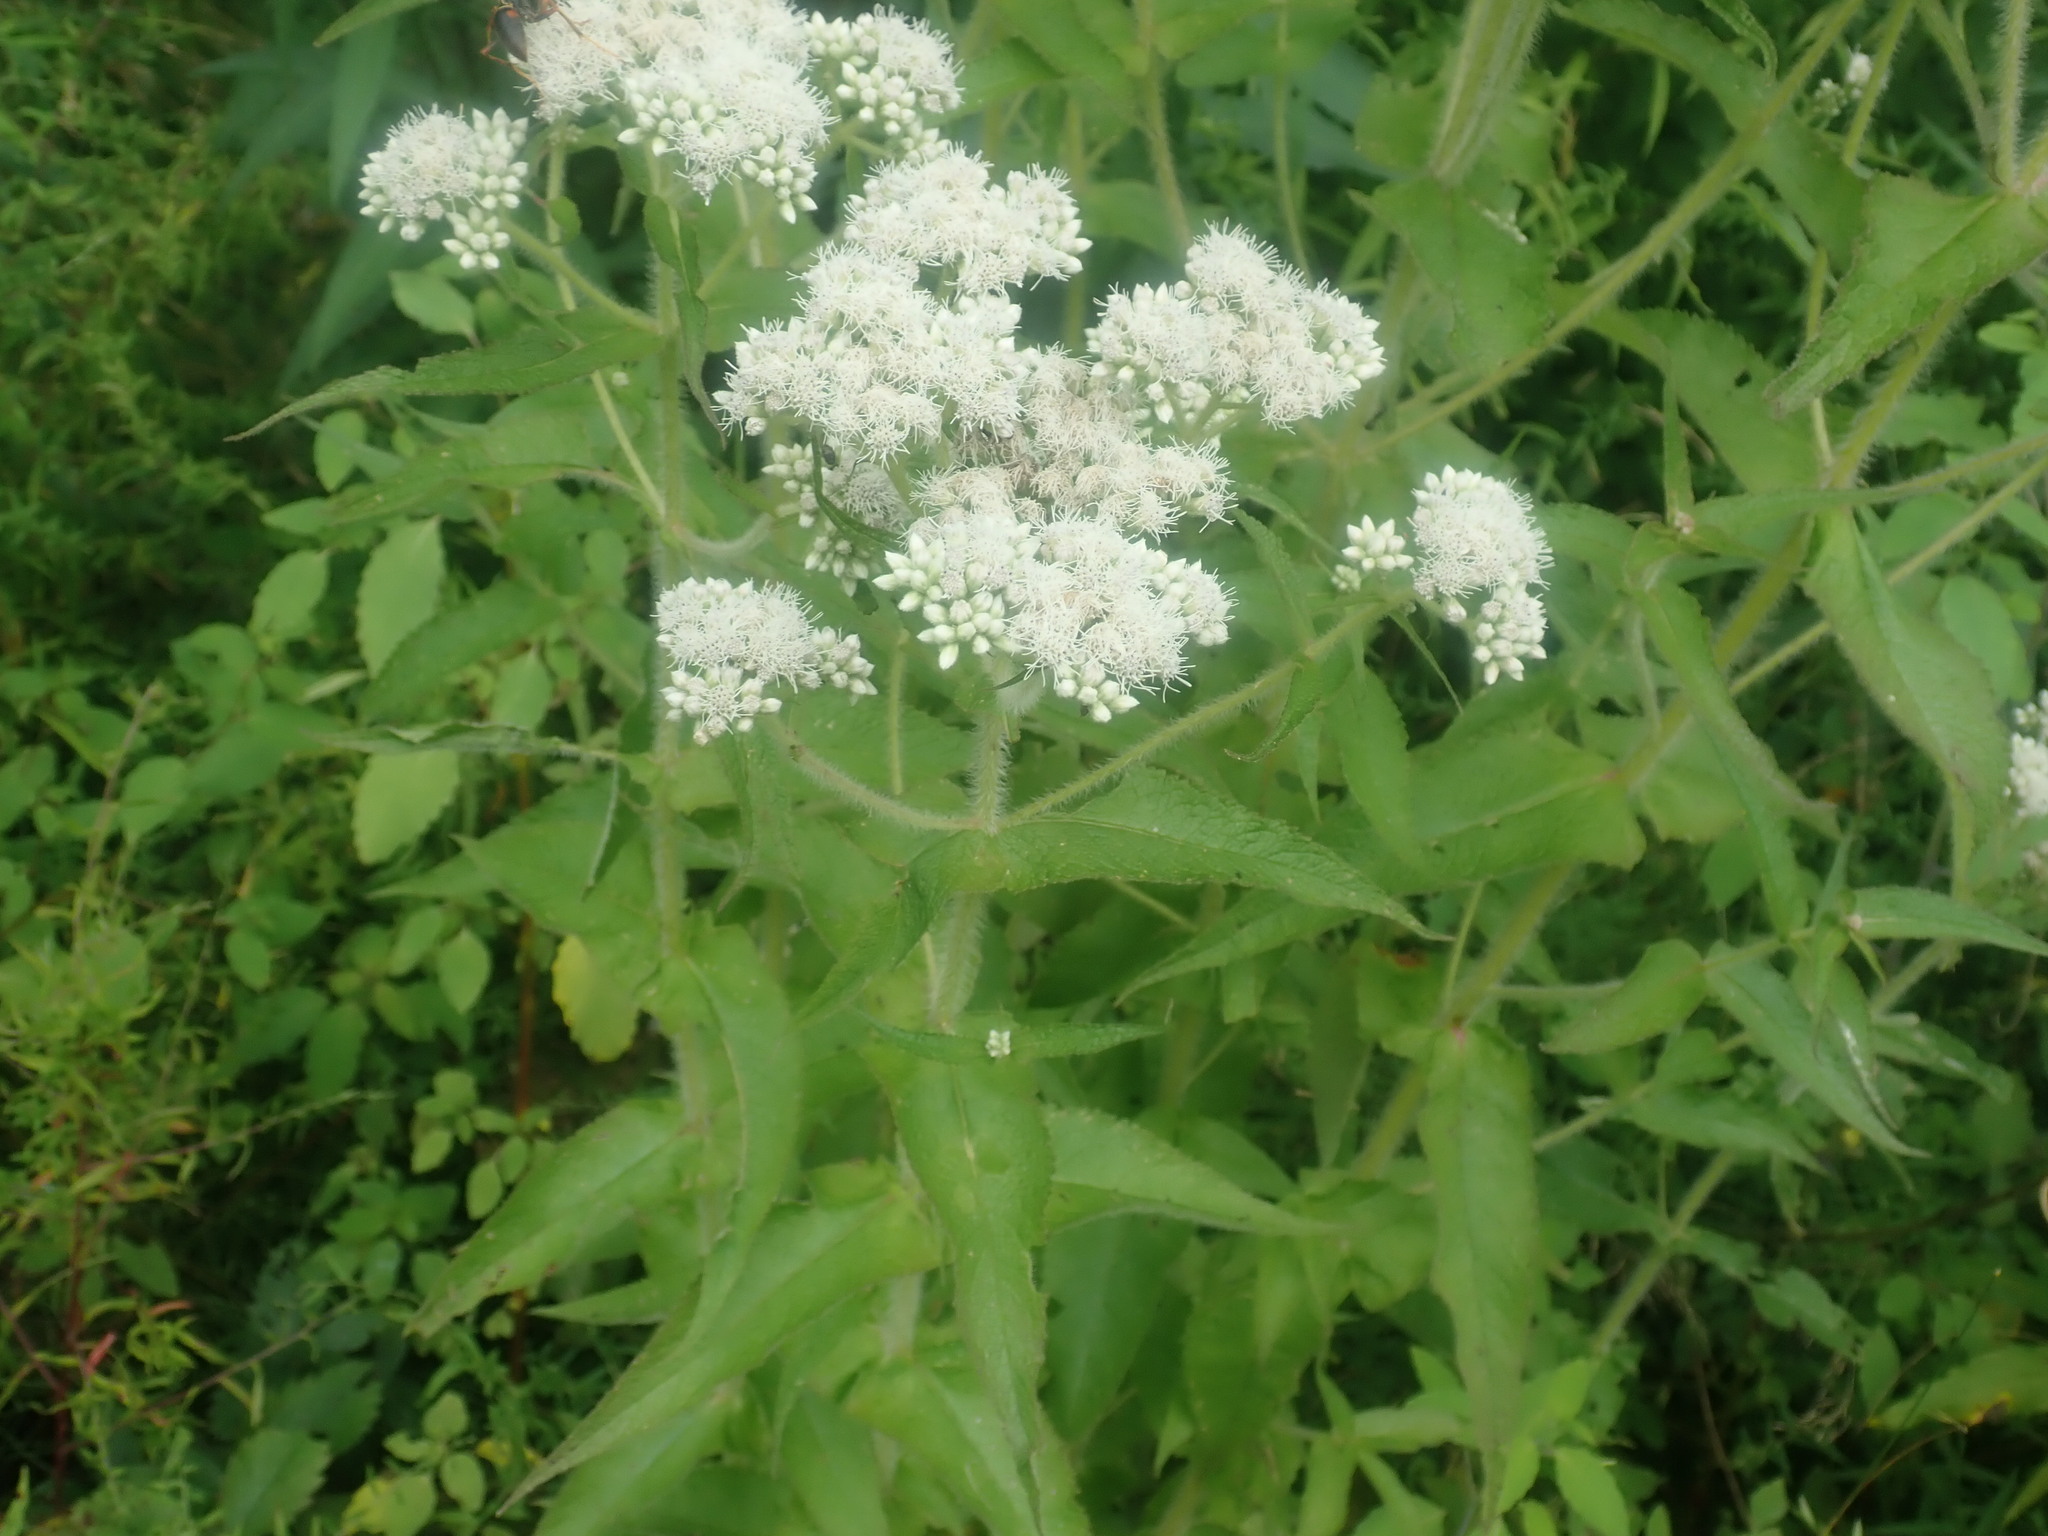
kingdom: Plantae
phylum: Tracheophyta
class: Magnoliopsida
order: Asterales
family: Asteraceae
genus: Eupatorium
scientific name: Eupatorium perfoliatum
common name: Boneset
